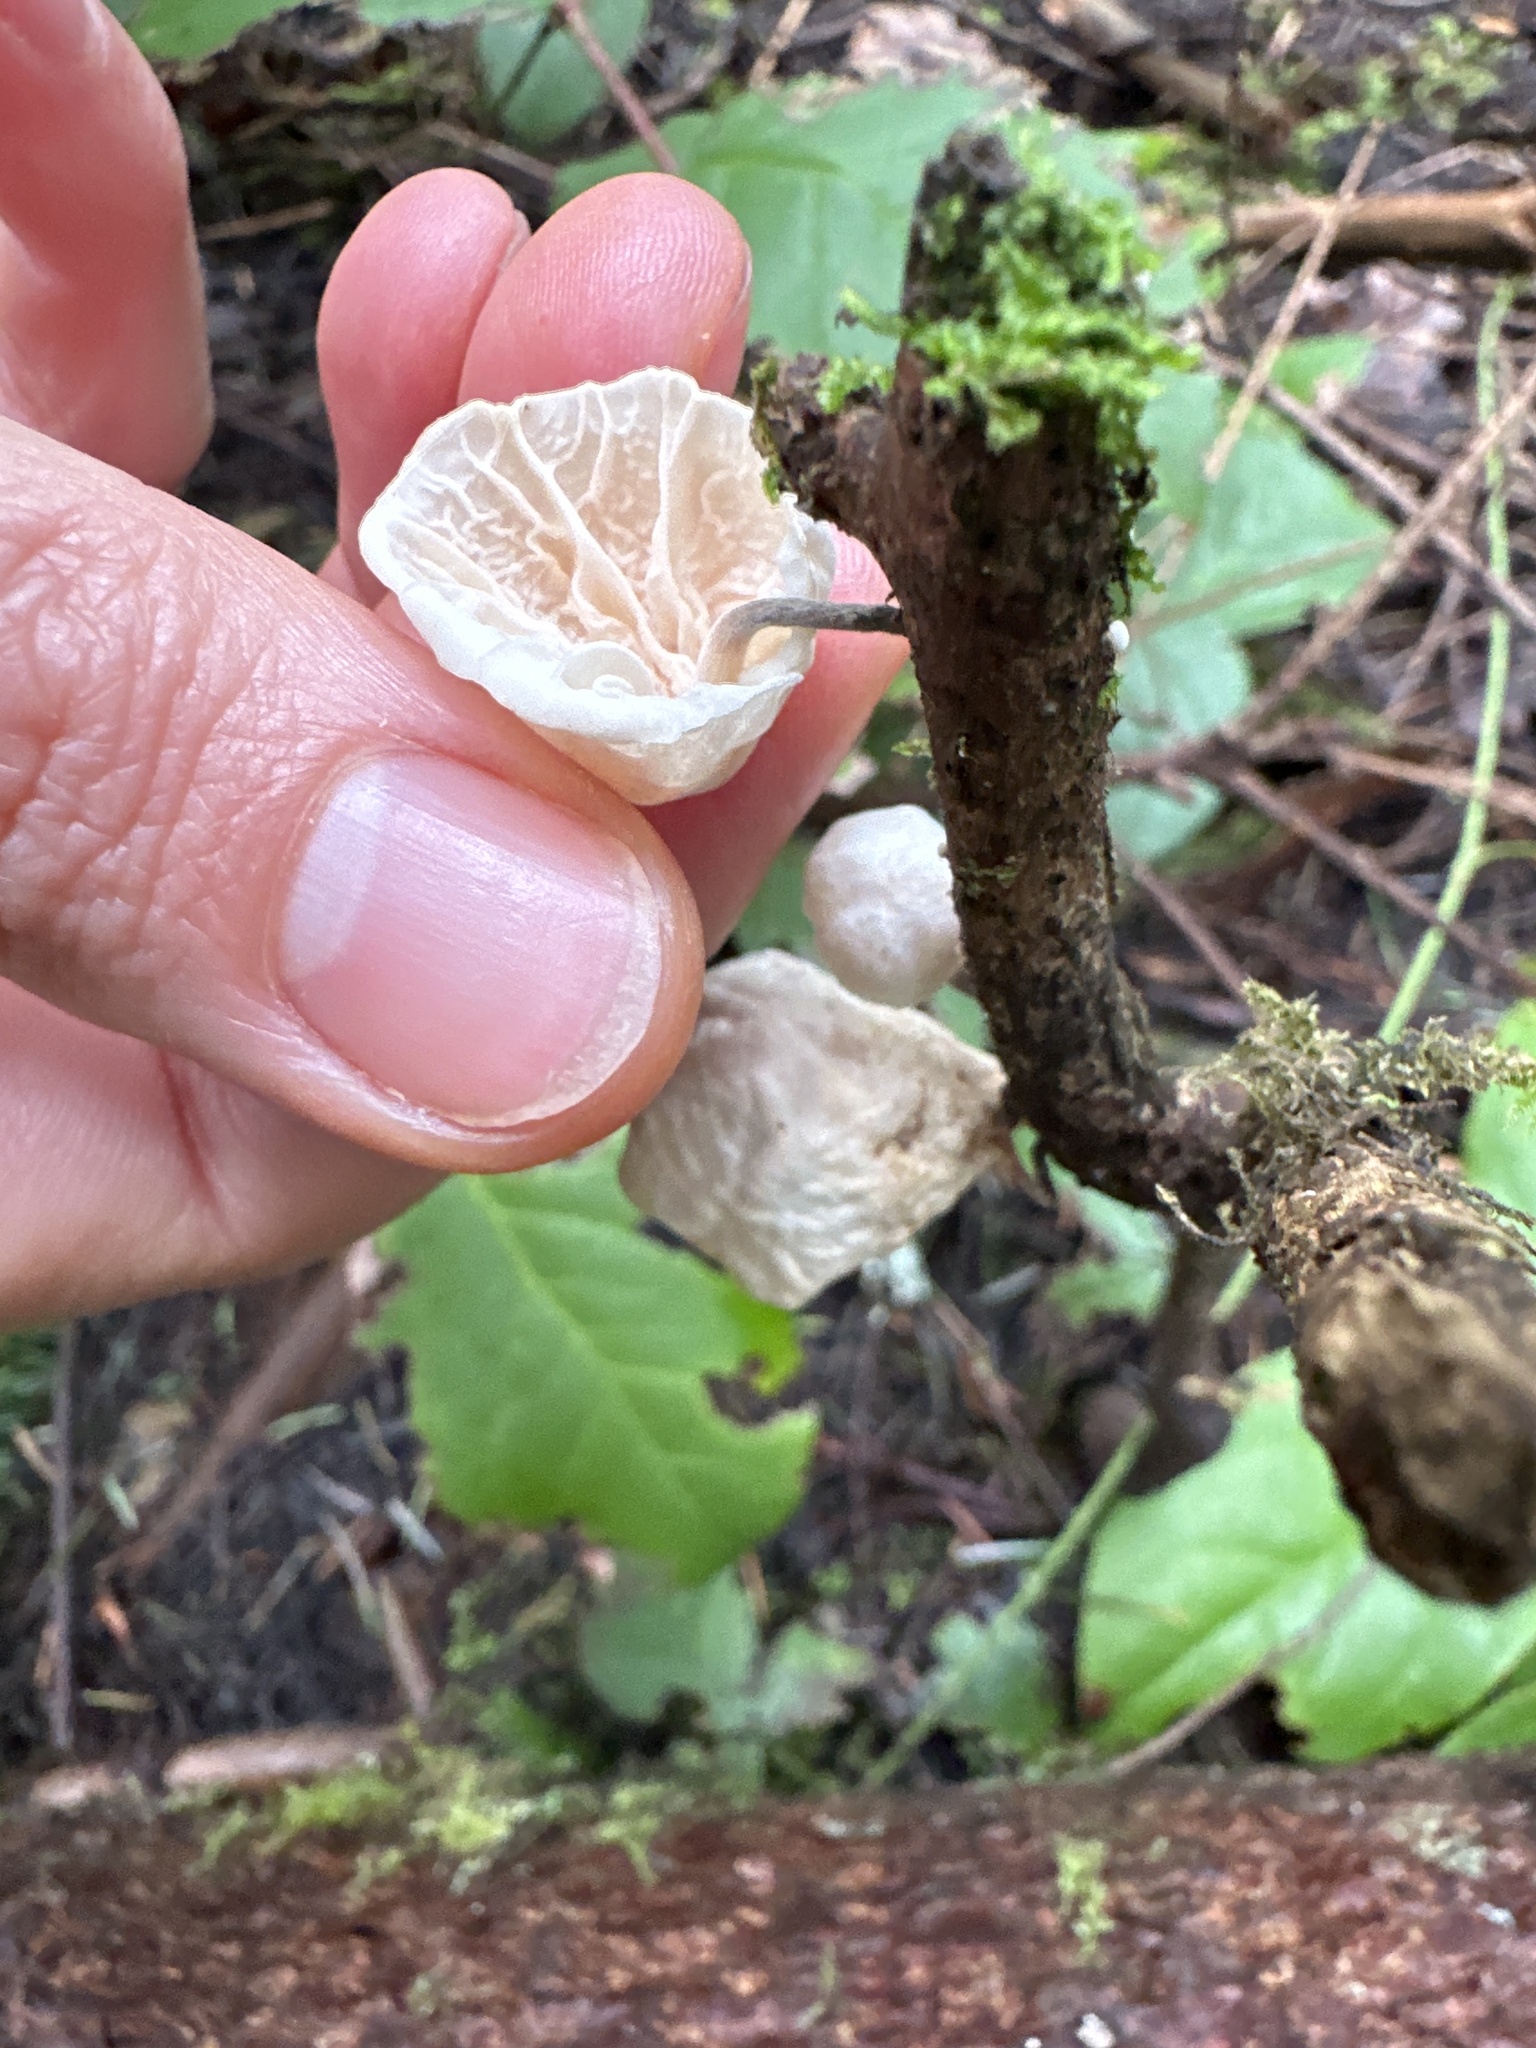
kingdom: Fungi
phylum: Basidiomycota
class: Agaricomycetes
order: Agaricales
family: Omphalotaceae
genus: Marasmiellus
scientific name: Marasmiellus candidus
